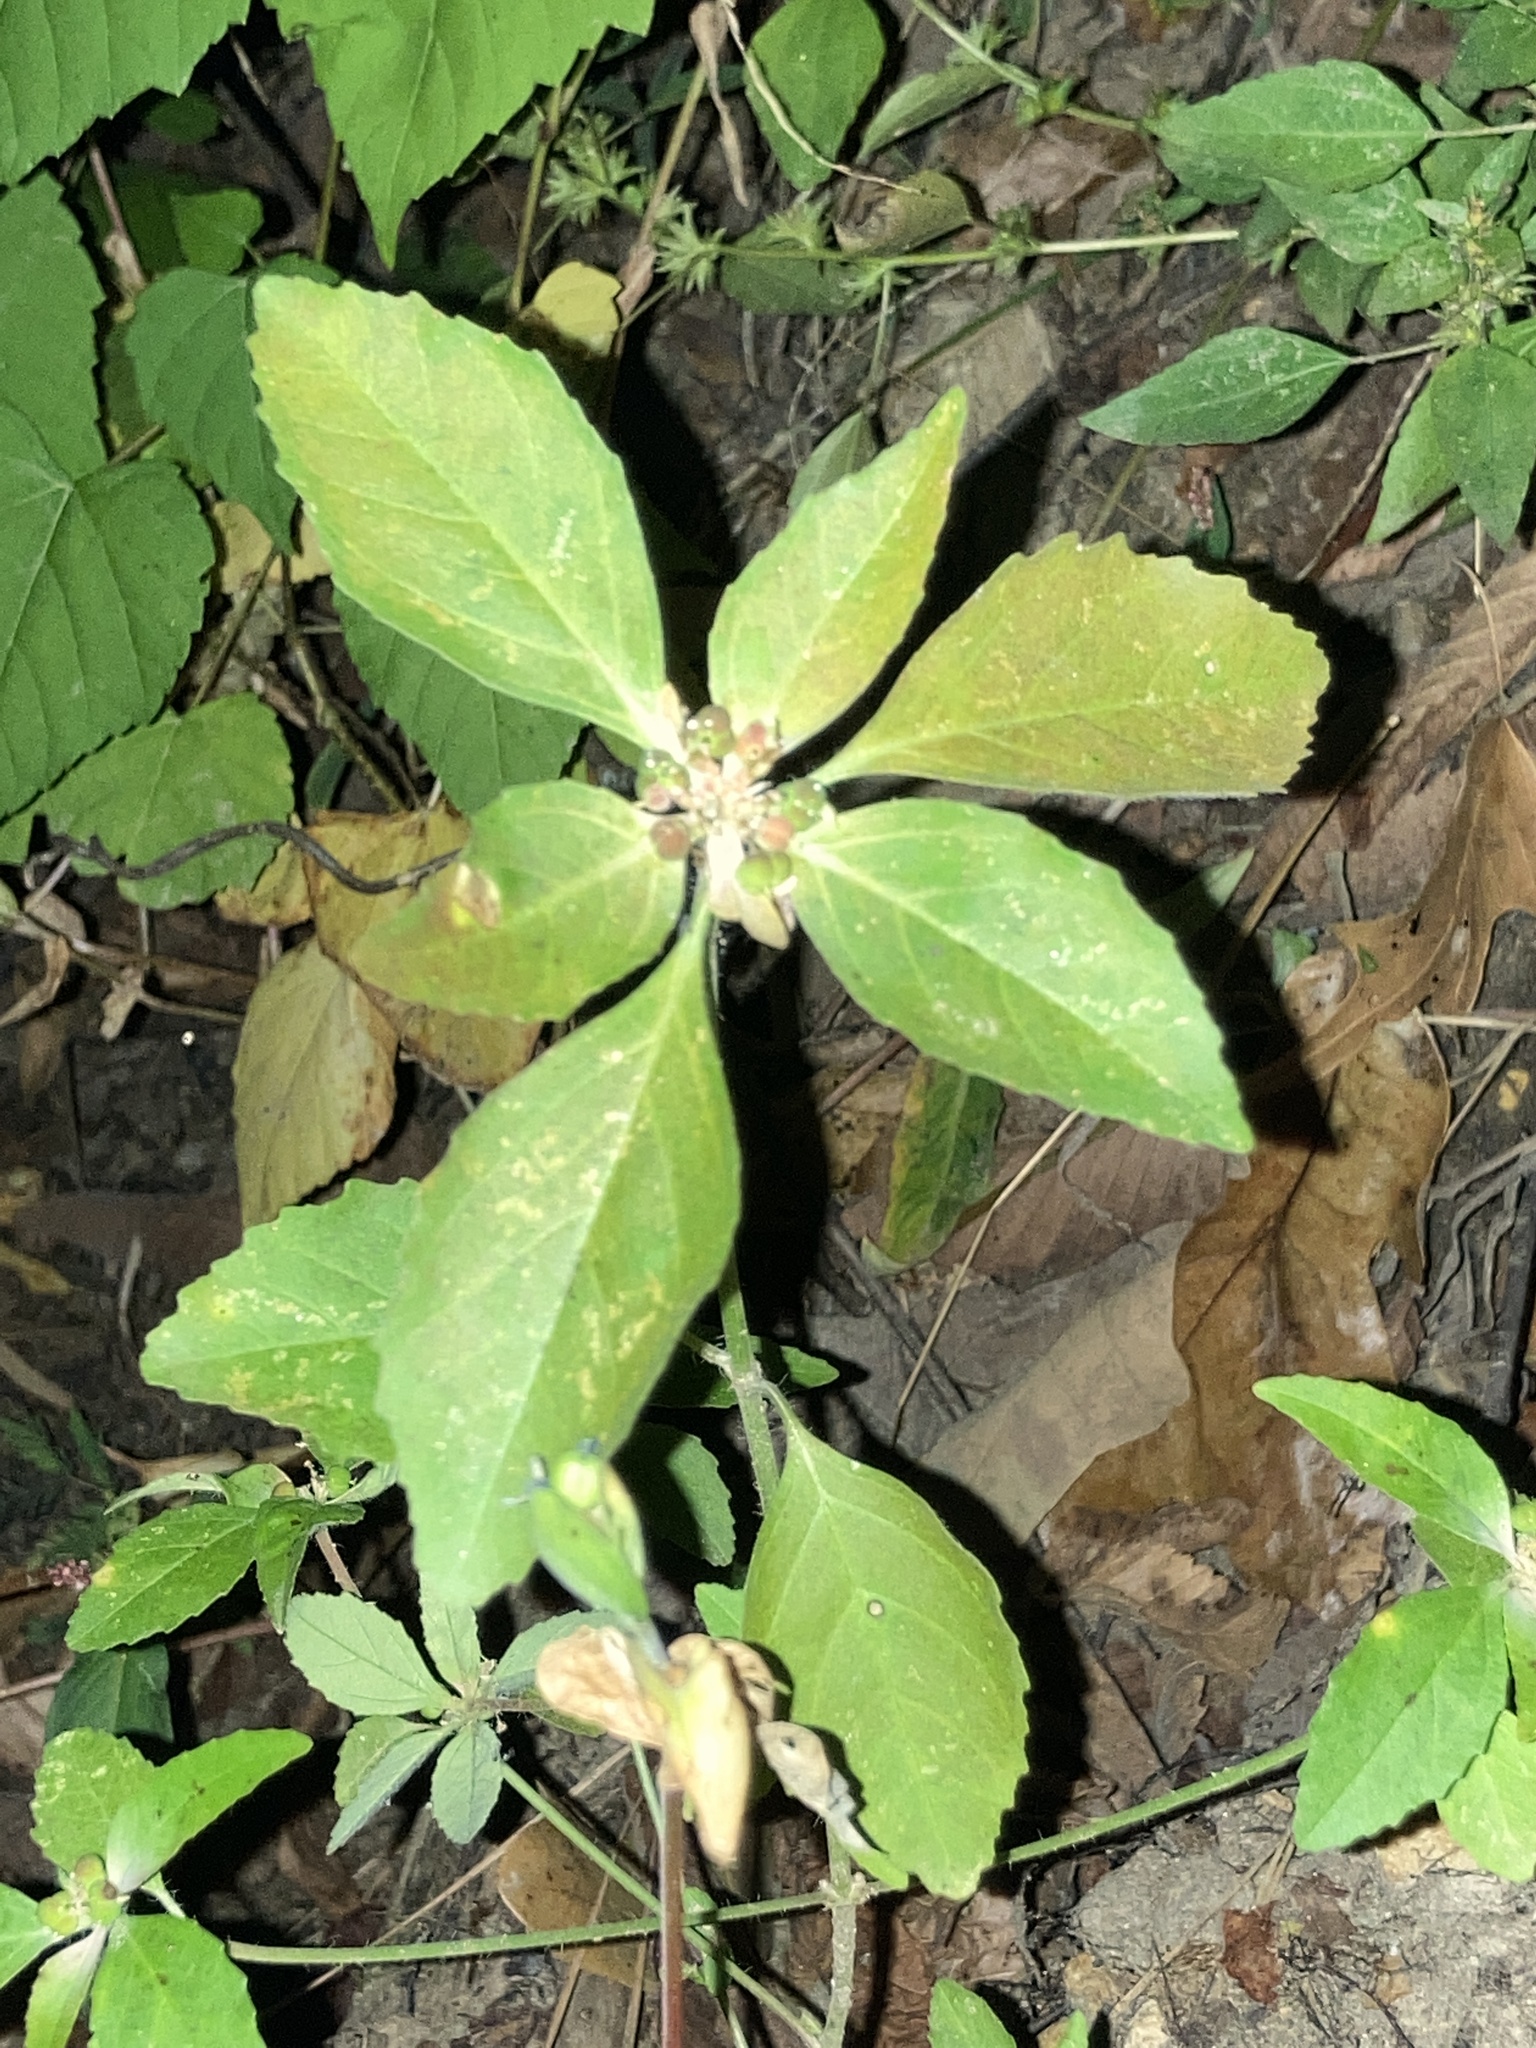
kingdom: Plantae
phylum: Tracheophyta
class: Magnoliopsida
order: Malpighiales
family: Euphorbiaceae
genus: Euphorbia
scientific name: Euphorbia dentata
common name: Dentate spurge
